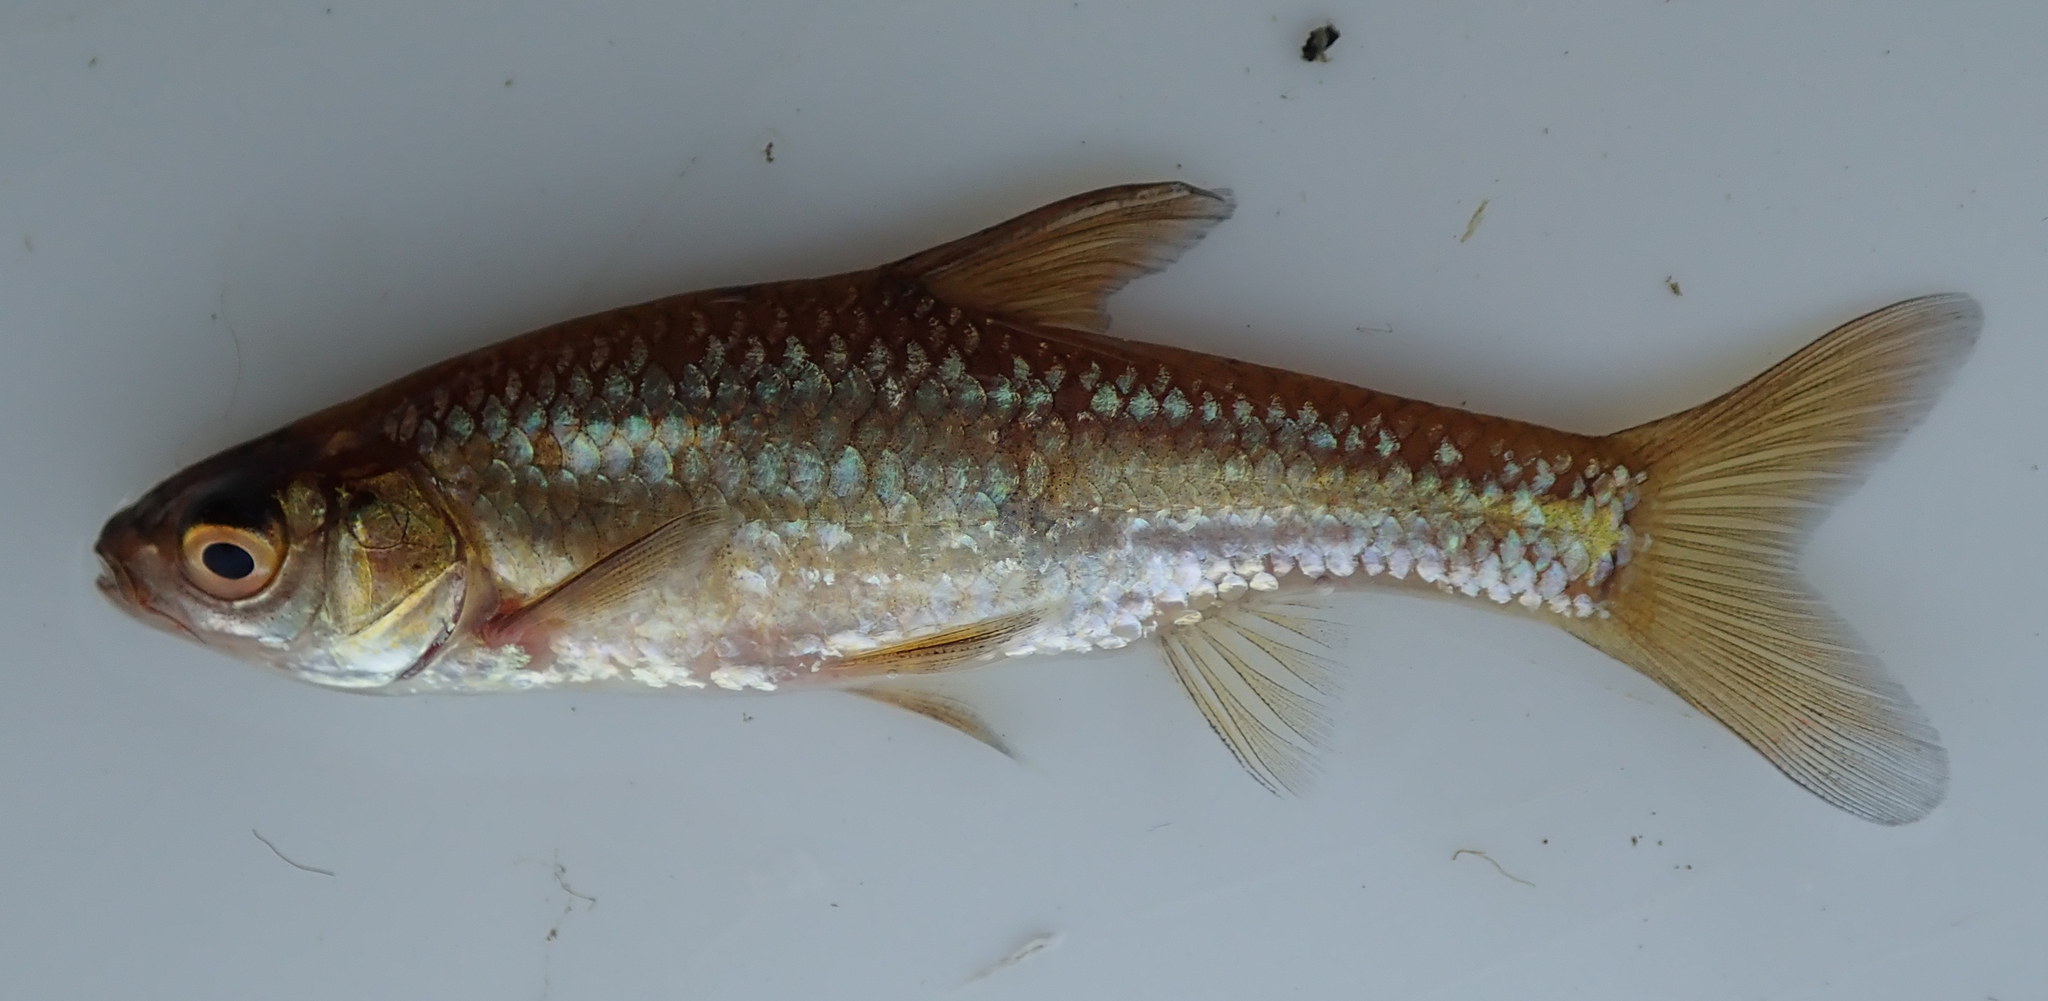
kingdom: Animalia
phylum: Chordata
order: Cypriniformes
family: Cyprinidae
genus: Enteromius
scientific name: Enteromius paludinosus
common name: Straightfin barb
